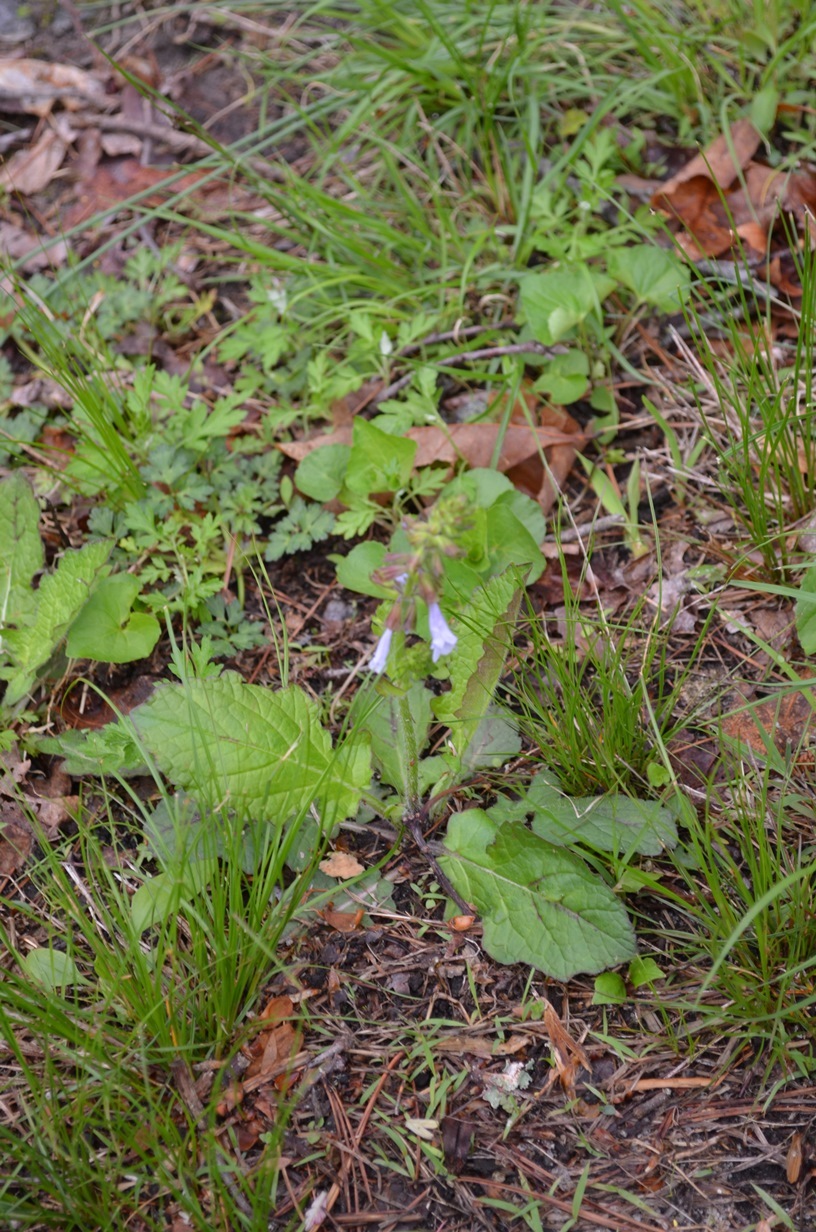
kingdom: Plantae
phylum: Tracheophyta
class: Magnoliopsida
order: Lamiales
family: Lamiaceae
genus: Salvia
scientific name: Salvia lyrata
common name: Cancerweed
